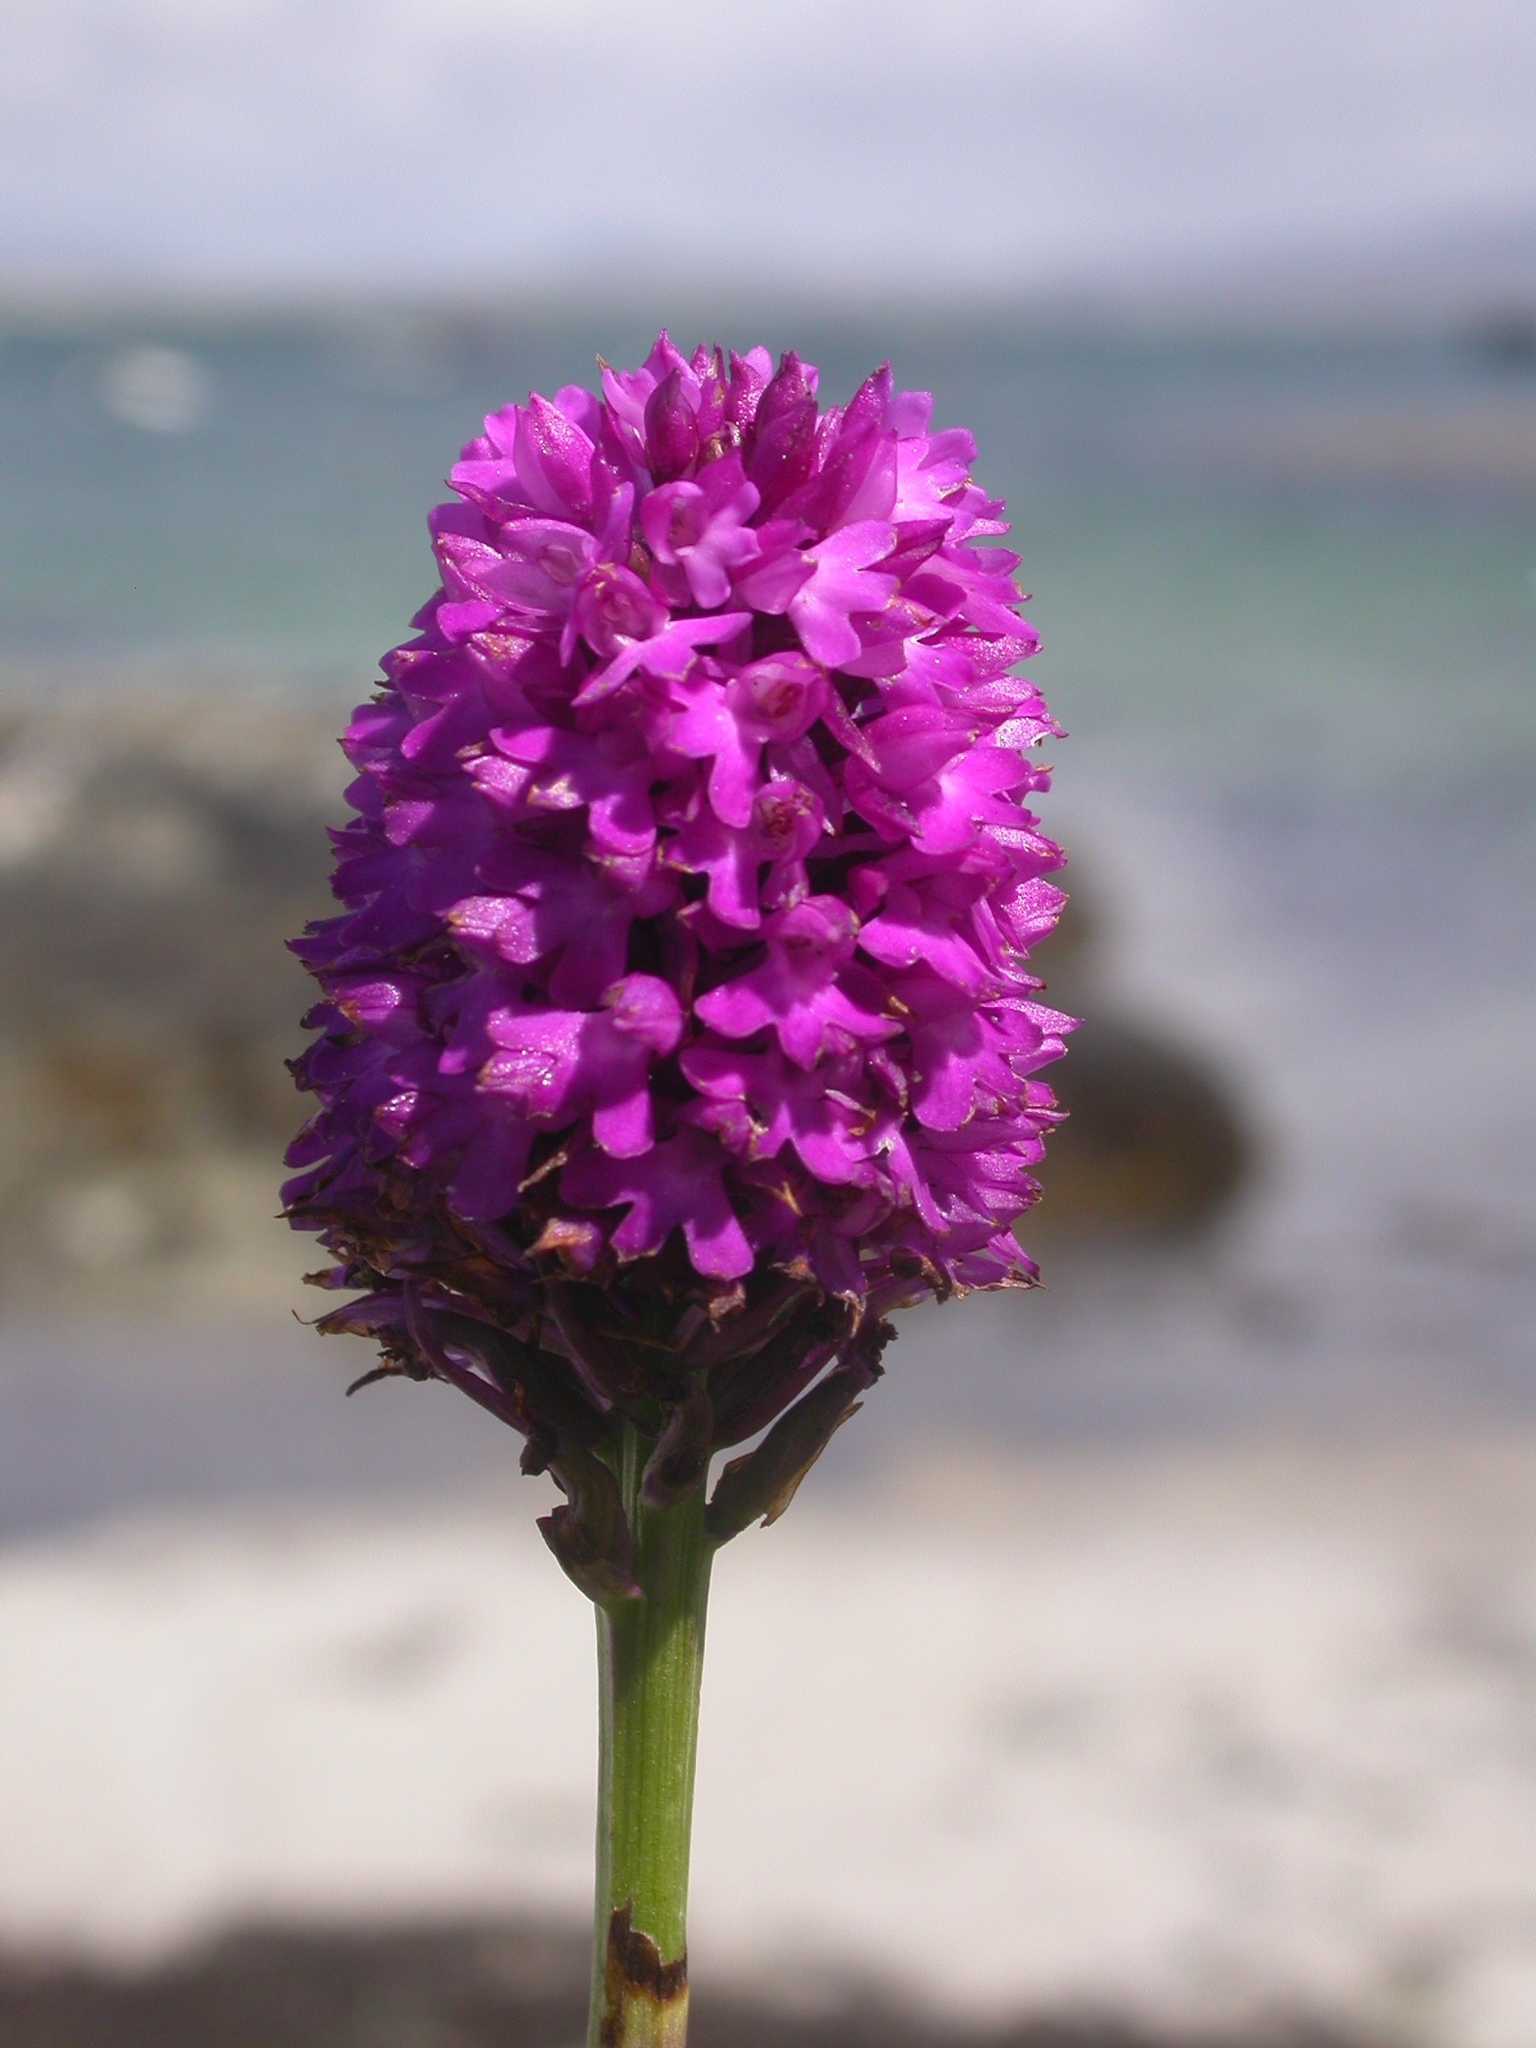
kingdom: Plantae
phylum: Tracheophyta
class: Liliopsida
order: Asparagales
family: Orchidaceae
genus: Anacamptis
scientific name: Anacamptis pyramidalis
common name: Pyramidal orchid
